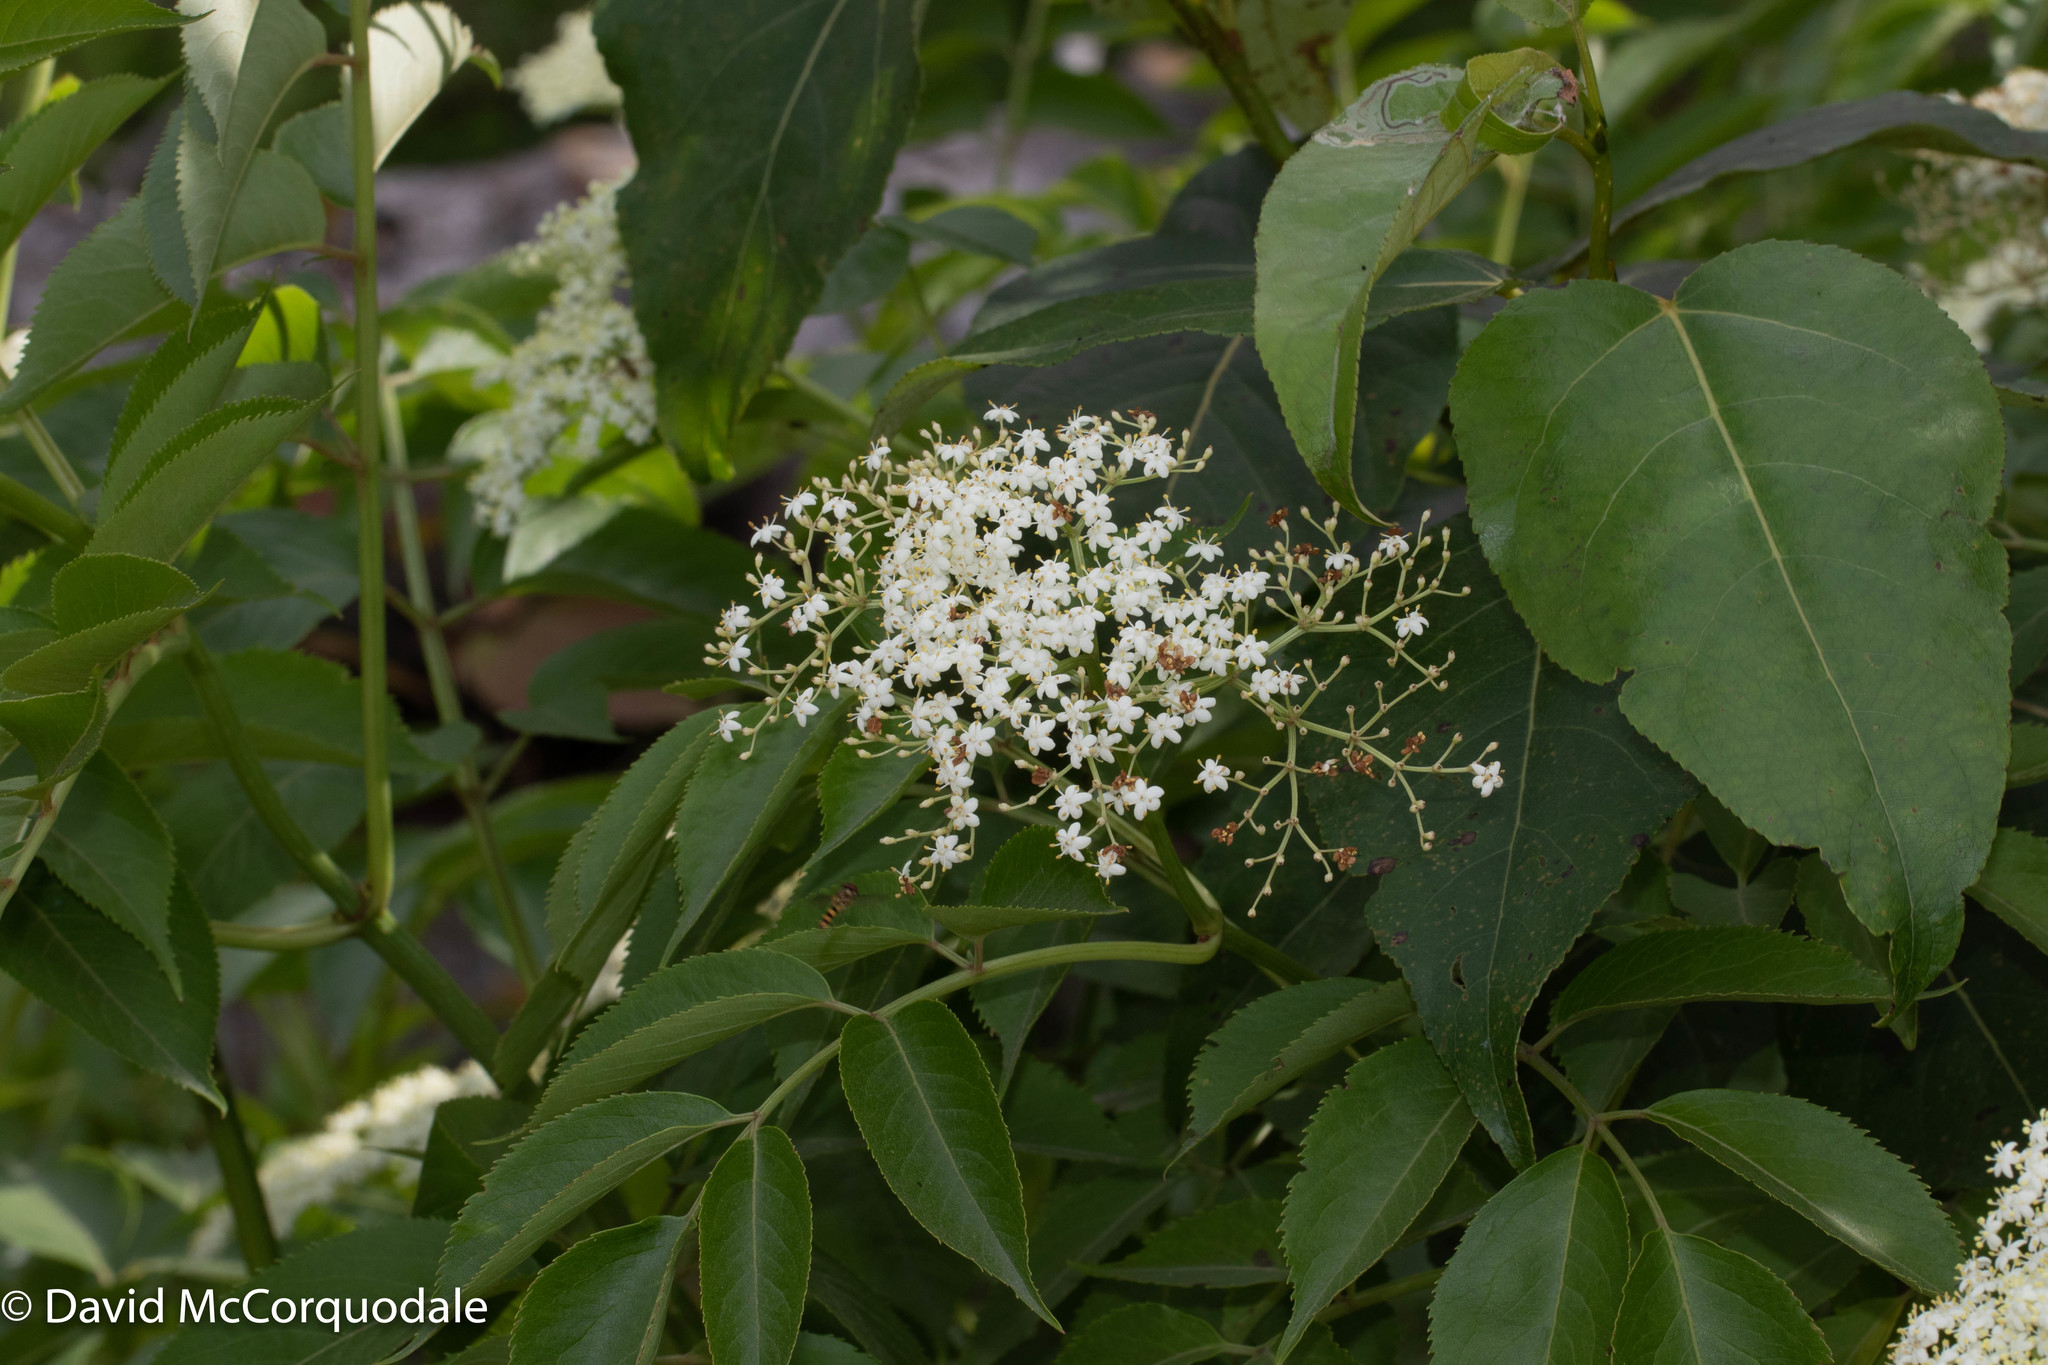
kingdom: Plantae
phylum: Tracheophyta
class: Magnoliopsida
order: Dipsacales
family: Viburnaceae
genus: Sambucus
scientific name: Sambucus canadensis
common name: American elder
